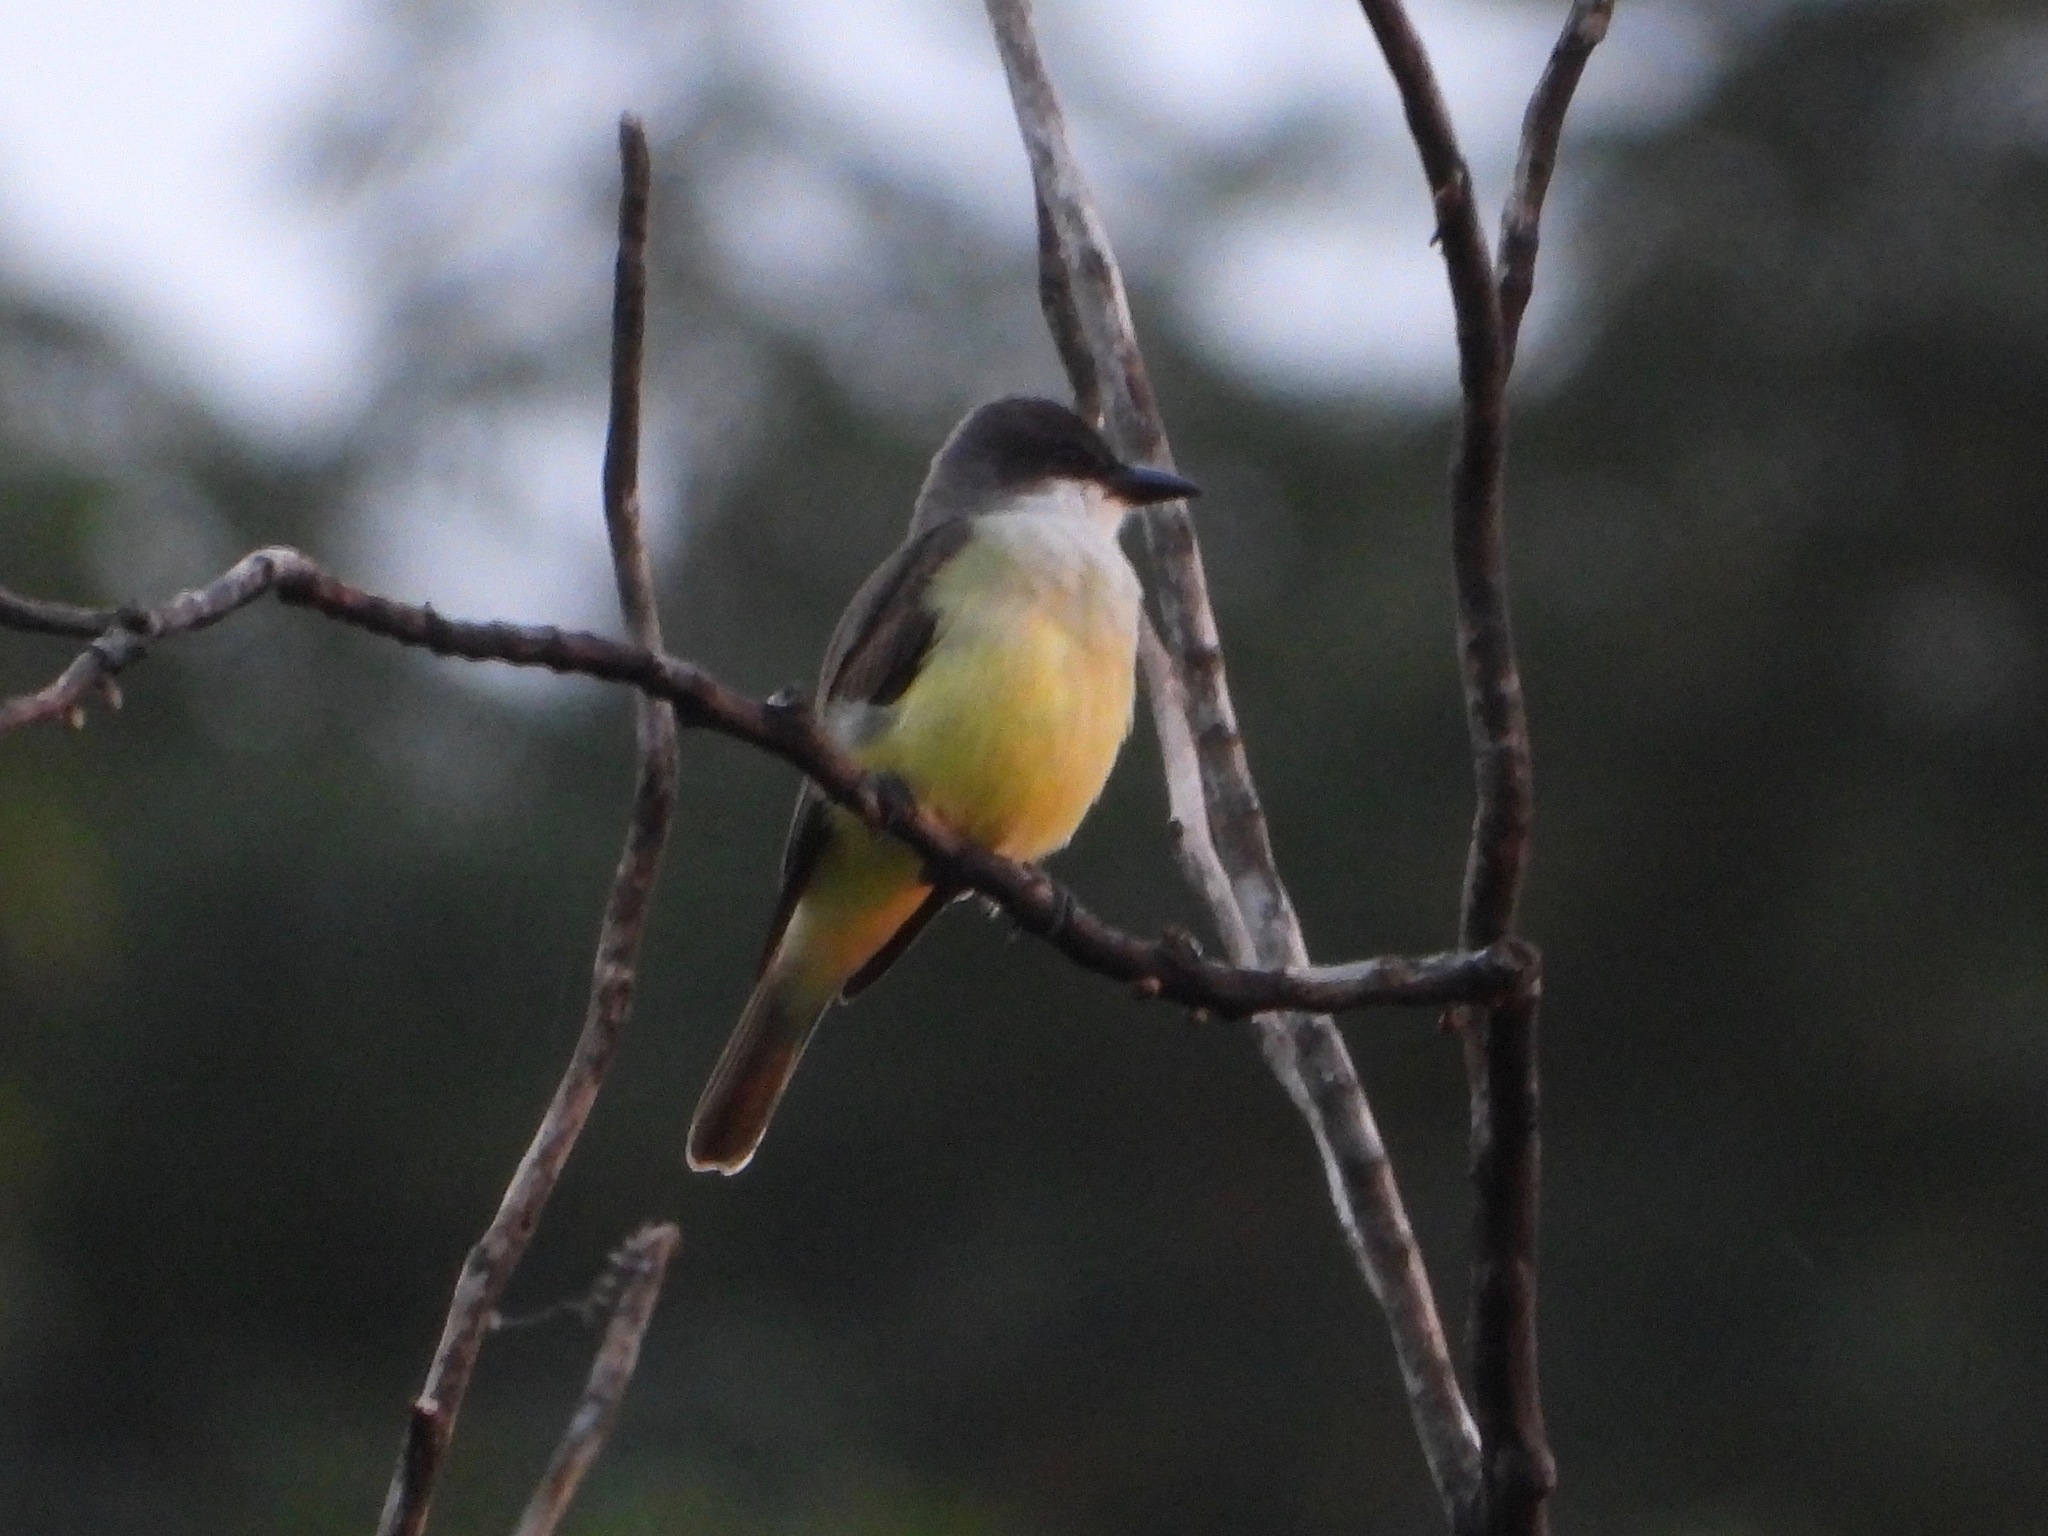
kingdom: Animalia
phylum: Chordata
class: Aves
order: Passeriformes
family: Tyrannidae
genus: Tyrannus
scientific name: Tyrannus crassirostris
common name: Thick-billed kingbird
